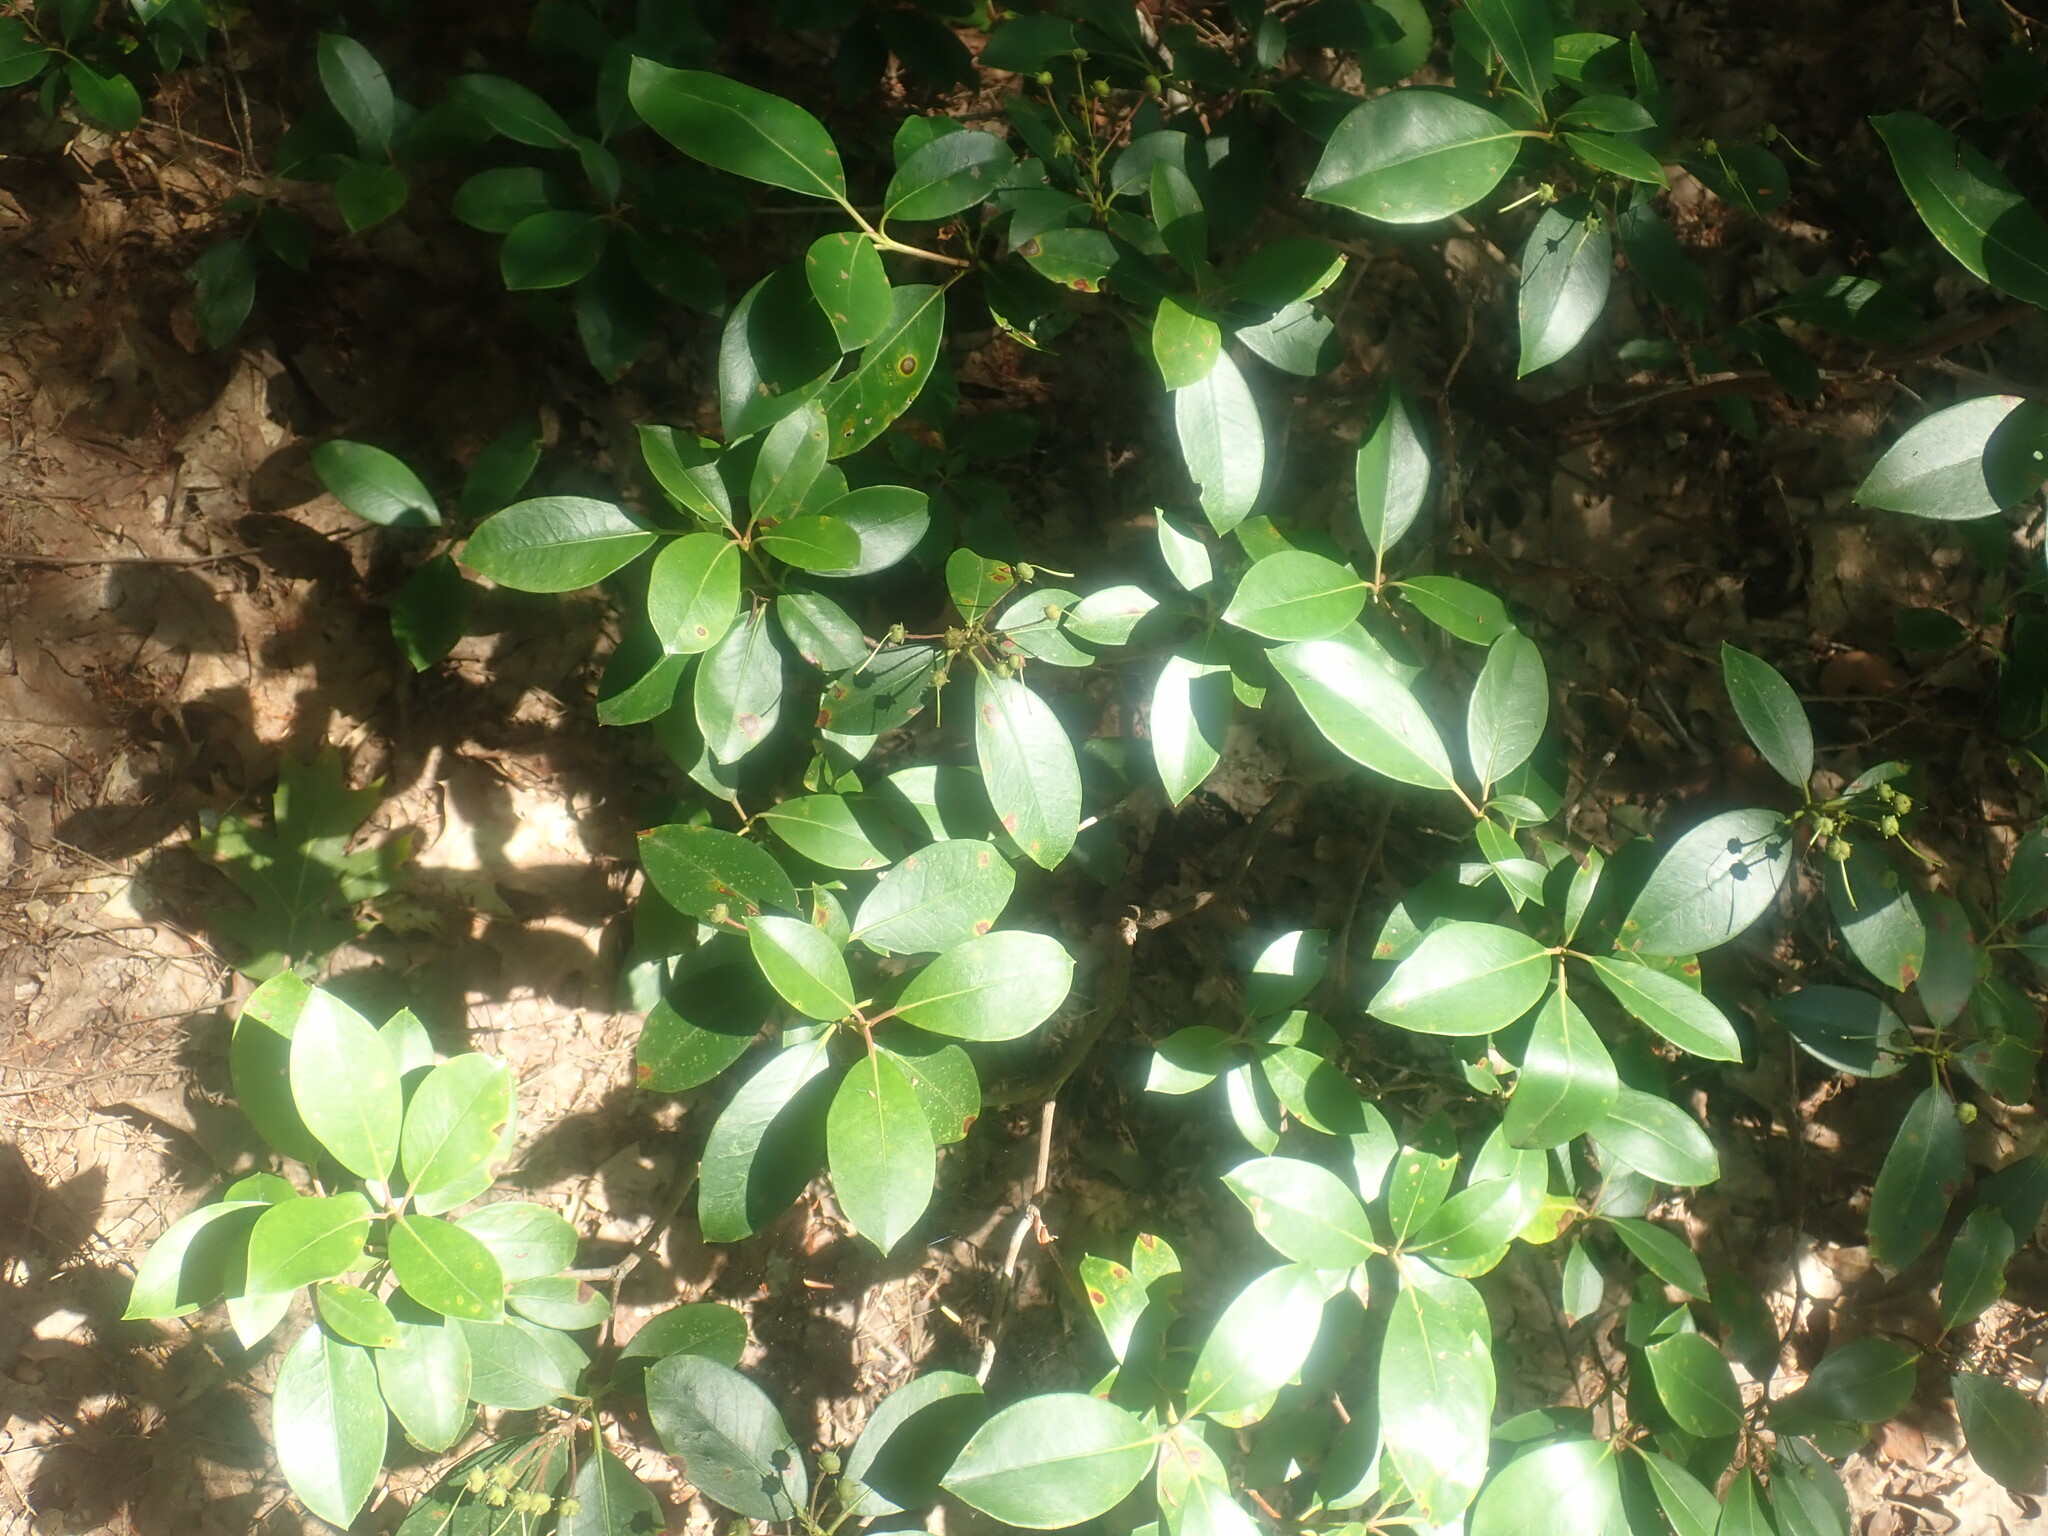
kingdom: Plantae
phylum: Tracheophyta
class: Magnoliopsida
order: Ericales
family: Ericaceae
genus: Kalmia
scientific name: Kalmia latifolia
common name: Mountain-laurel
